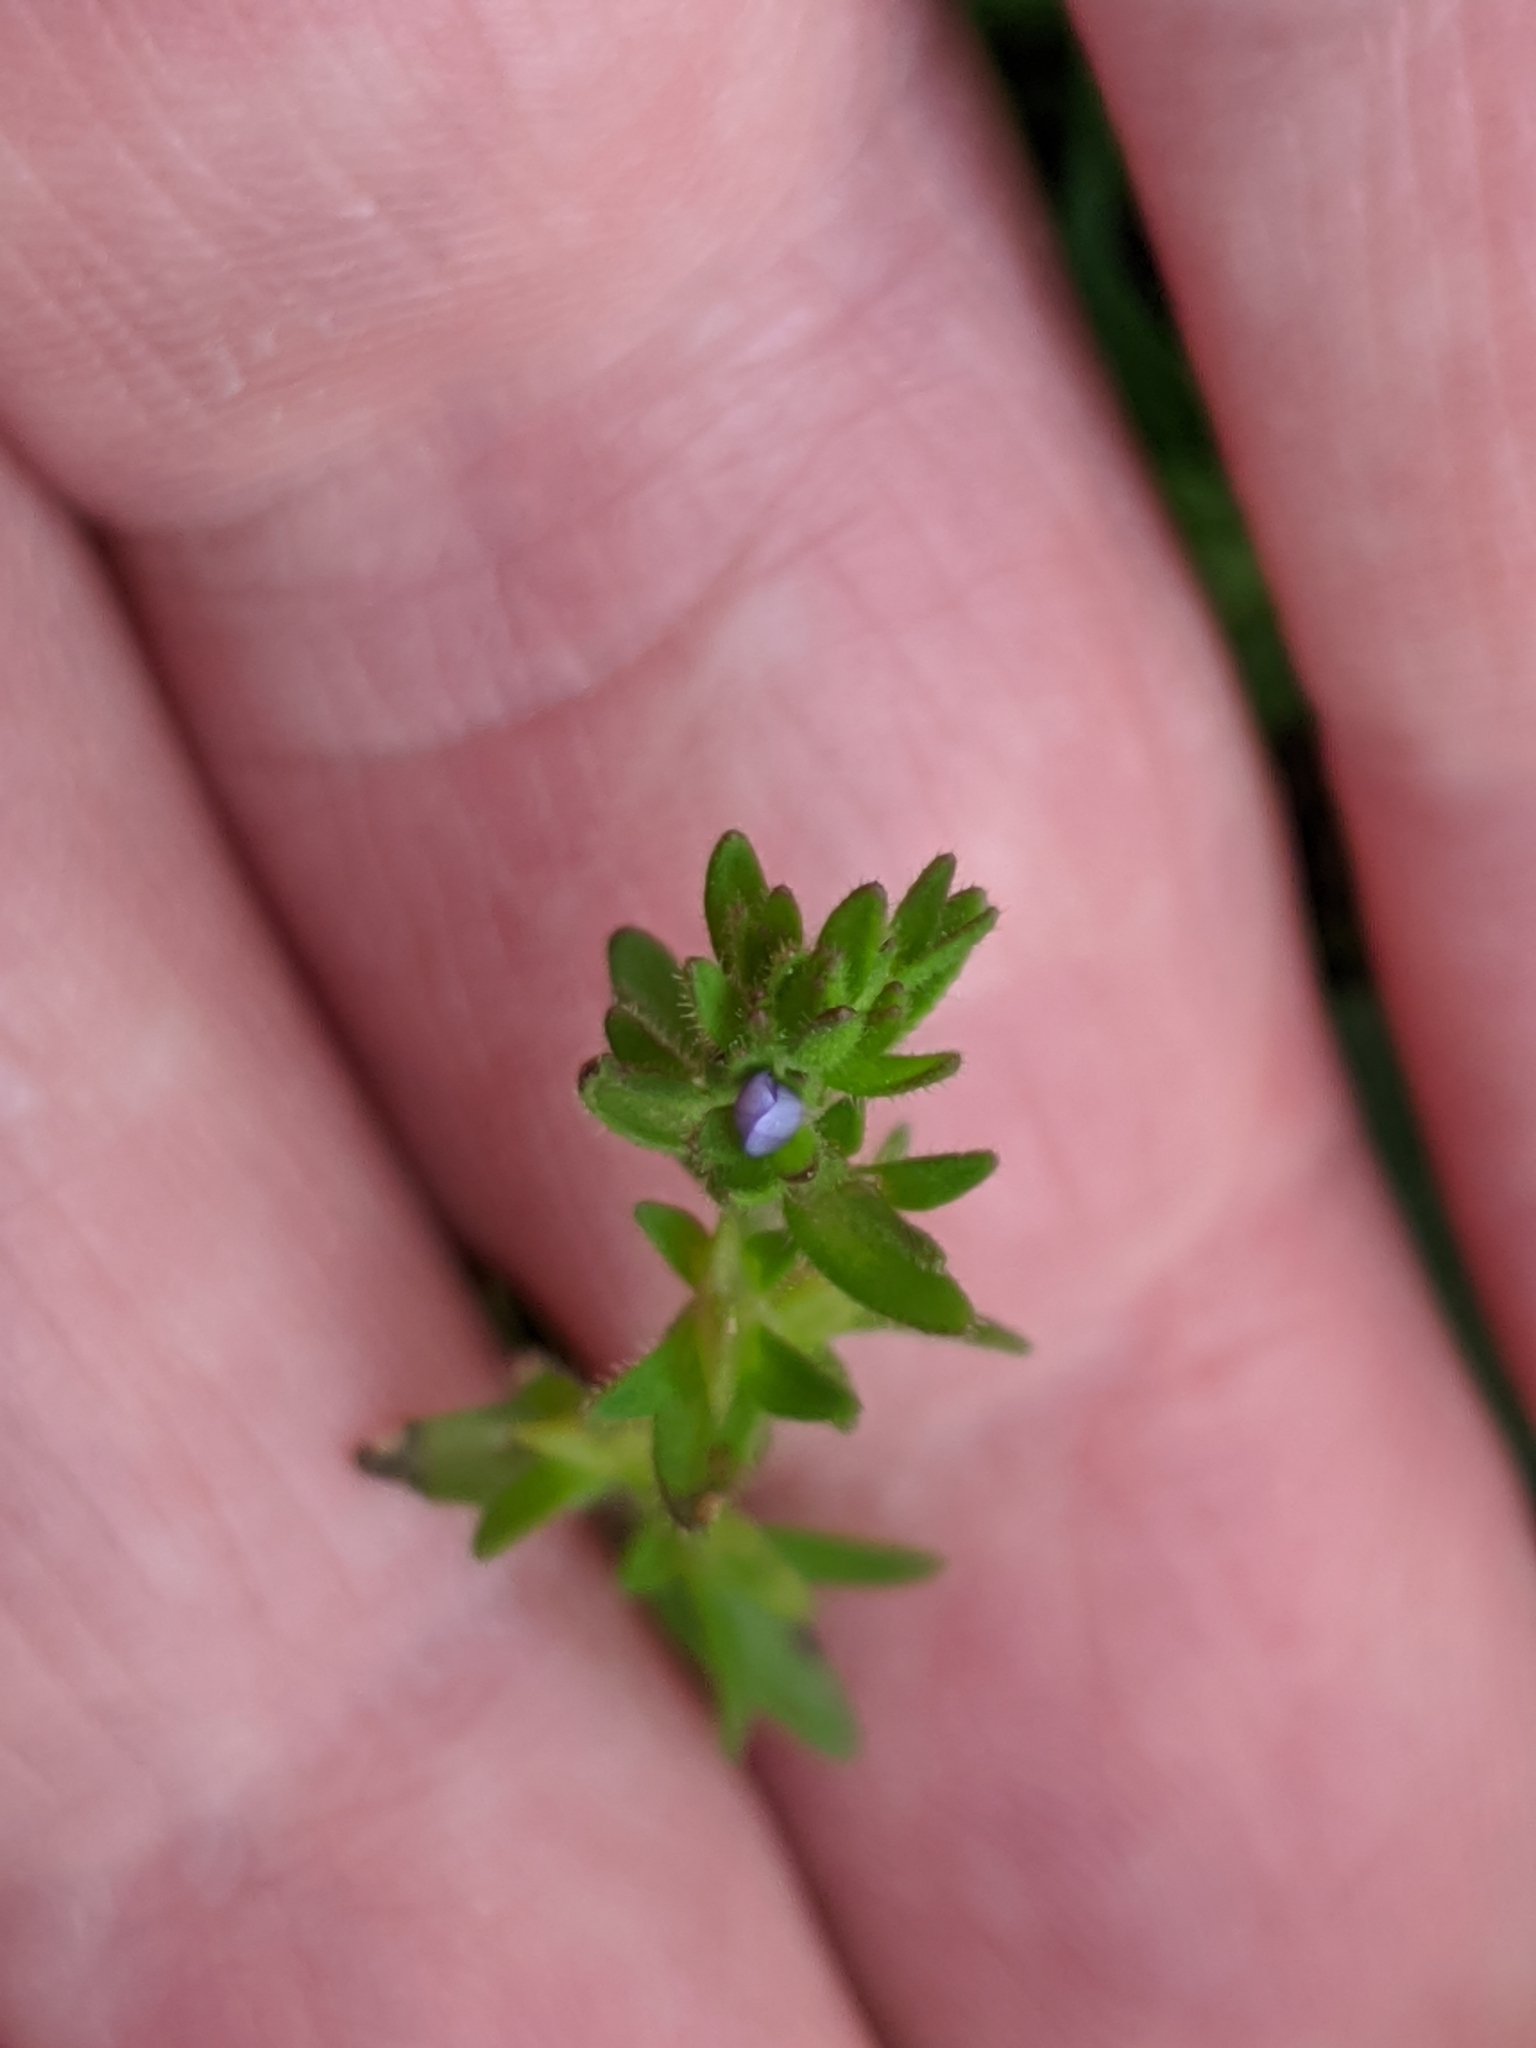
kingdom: Plantae
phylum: Tracheophyta
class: Magnoliopsida
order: Lamiales
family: Plantaginaceae
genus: Veronica
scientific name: Veronica arvensis
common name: Corn speedwell
